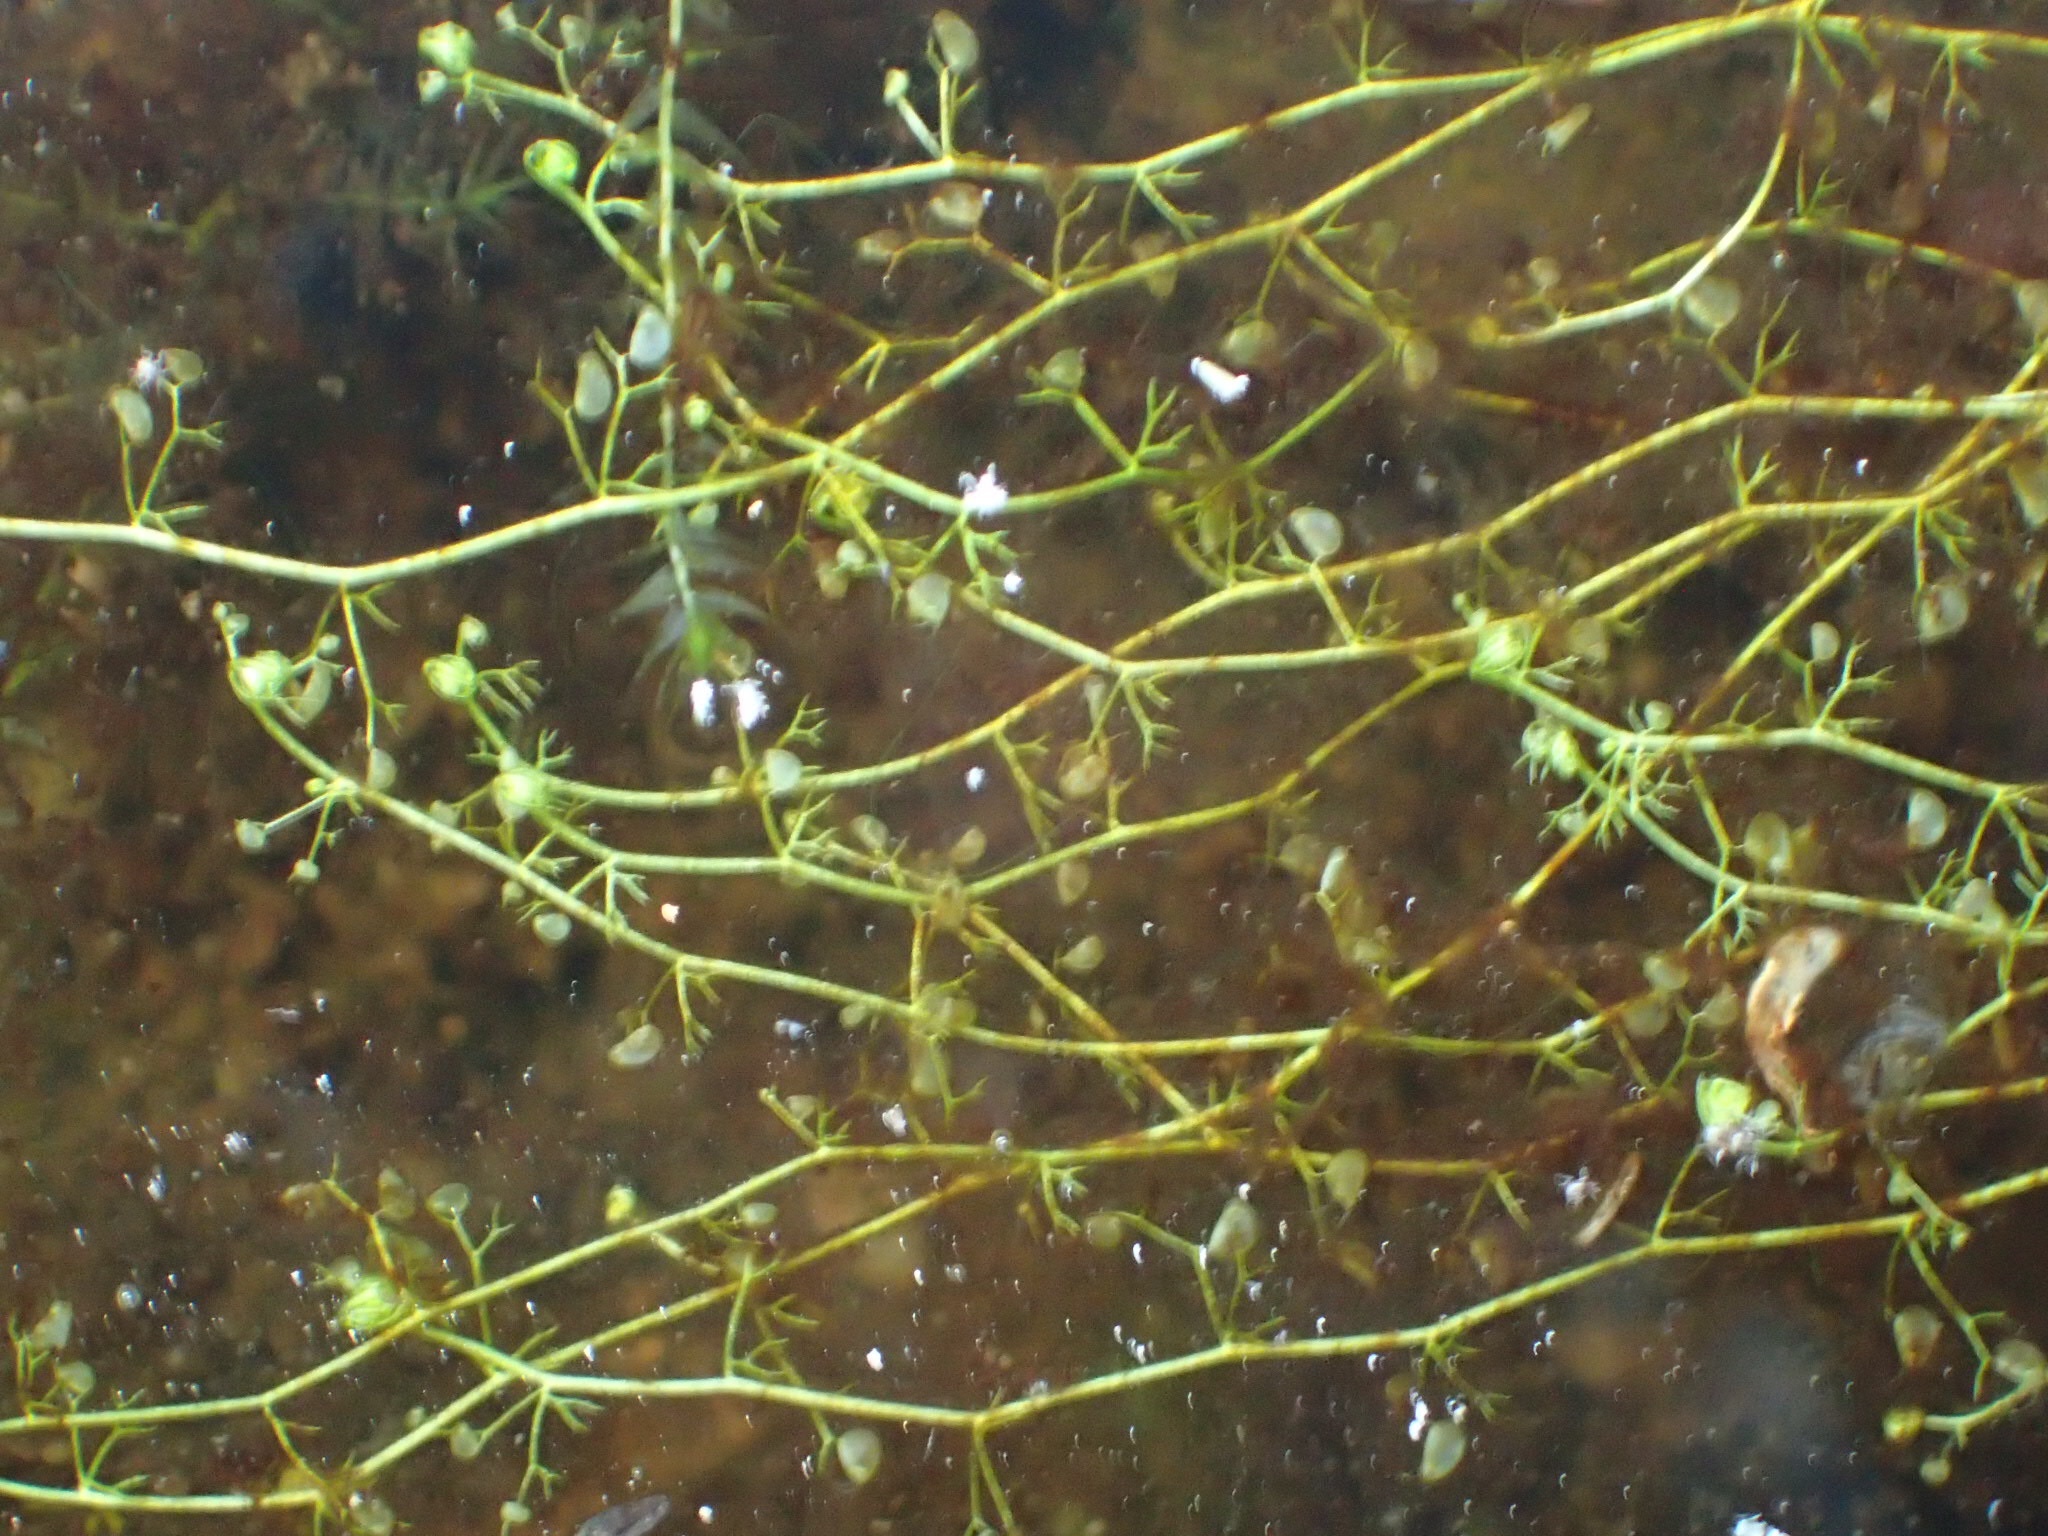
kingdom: Plantae
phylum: Tracheophyta
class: Magnoliopsida
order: Lamiales
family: Lentibulariaceae
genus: Utricularia
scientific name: Utricularia minor
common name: Lesser bladderwort
